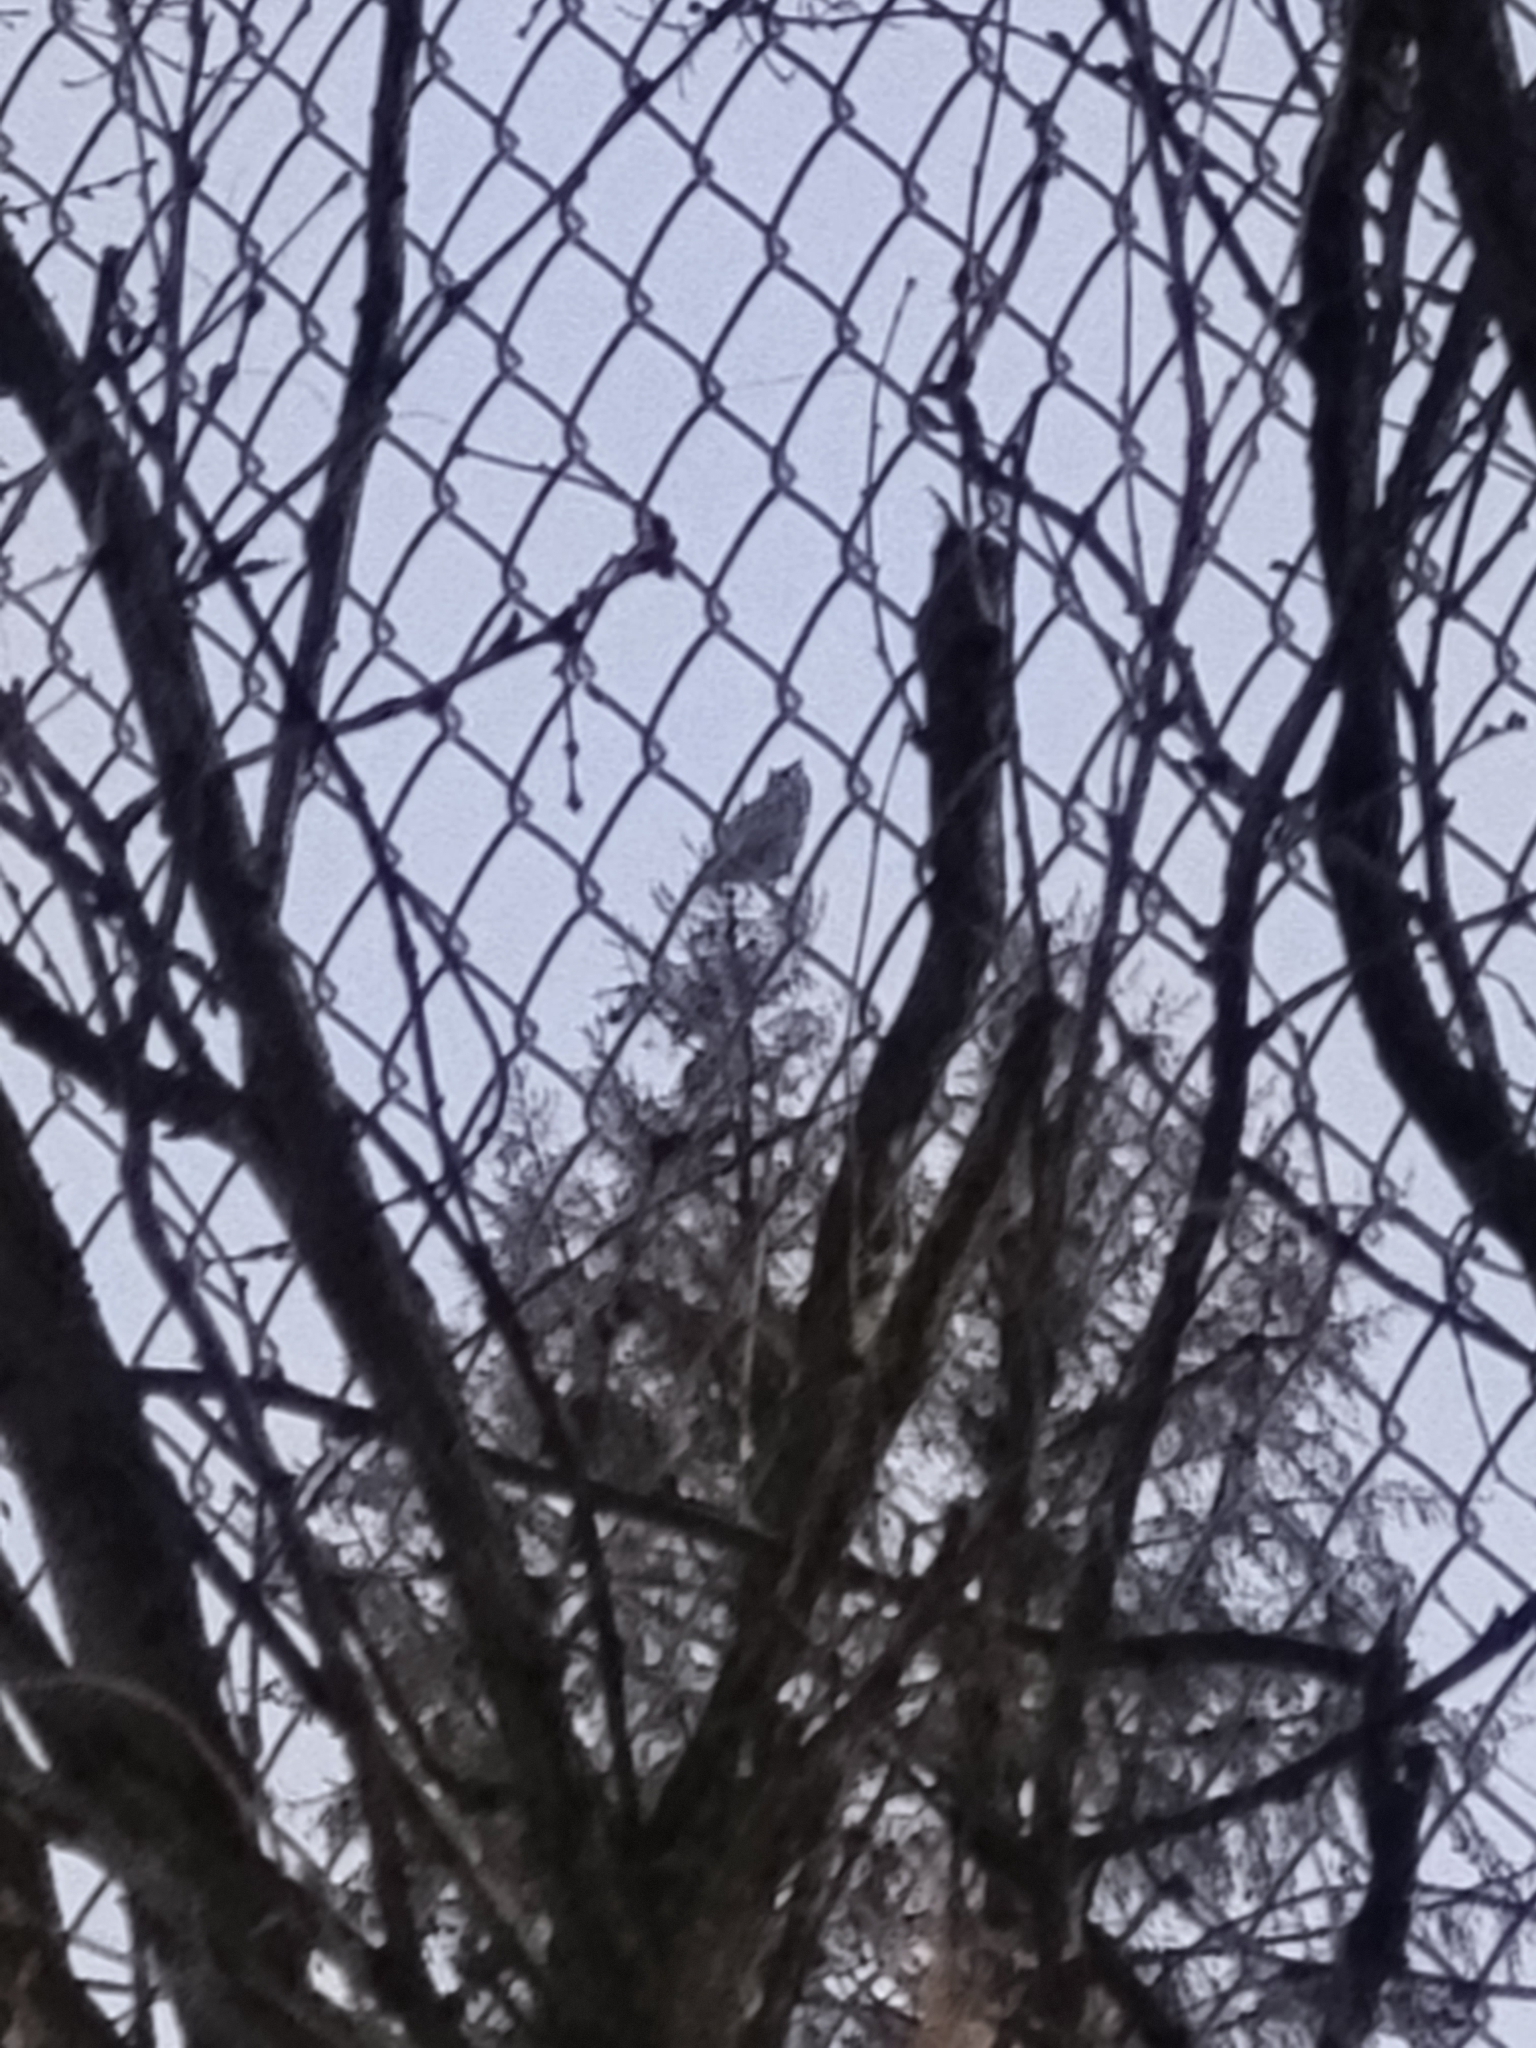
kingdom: Animalia
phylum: Chordata
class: Aves
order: Strigiformes
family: Strigidae
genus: Bubo
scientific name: Bubo virginianus
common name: Great horned owl
